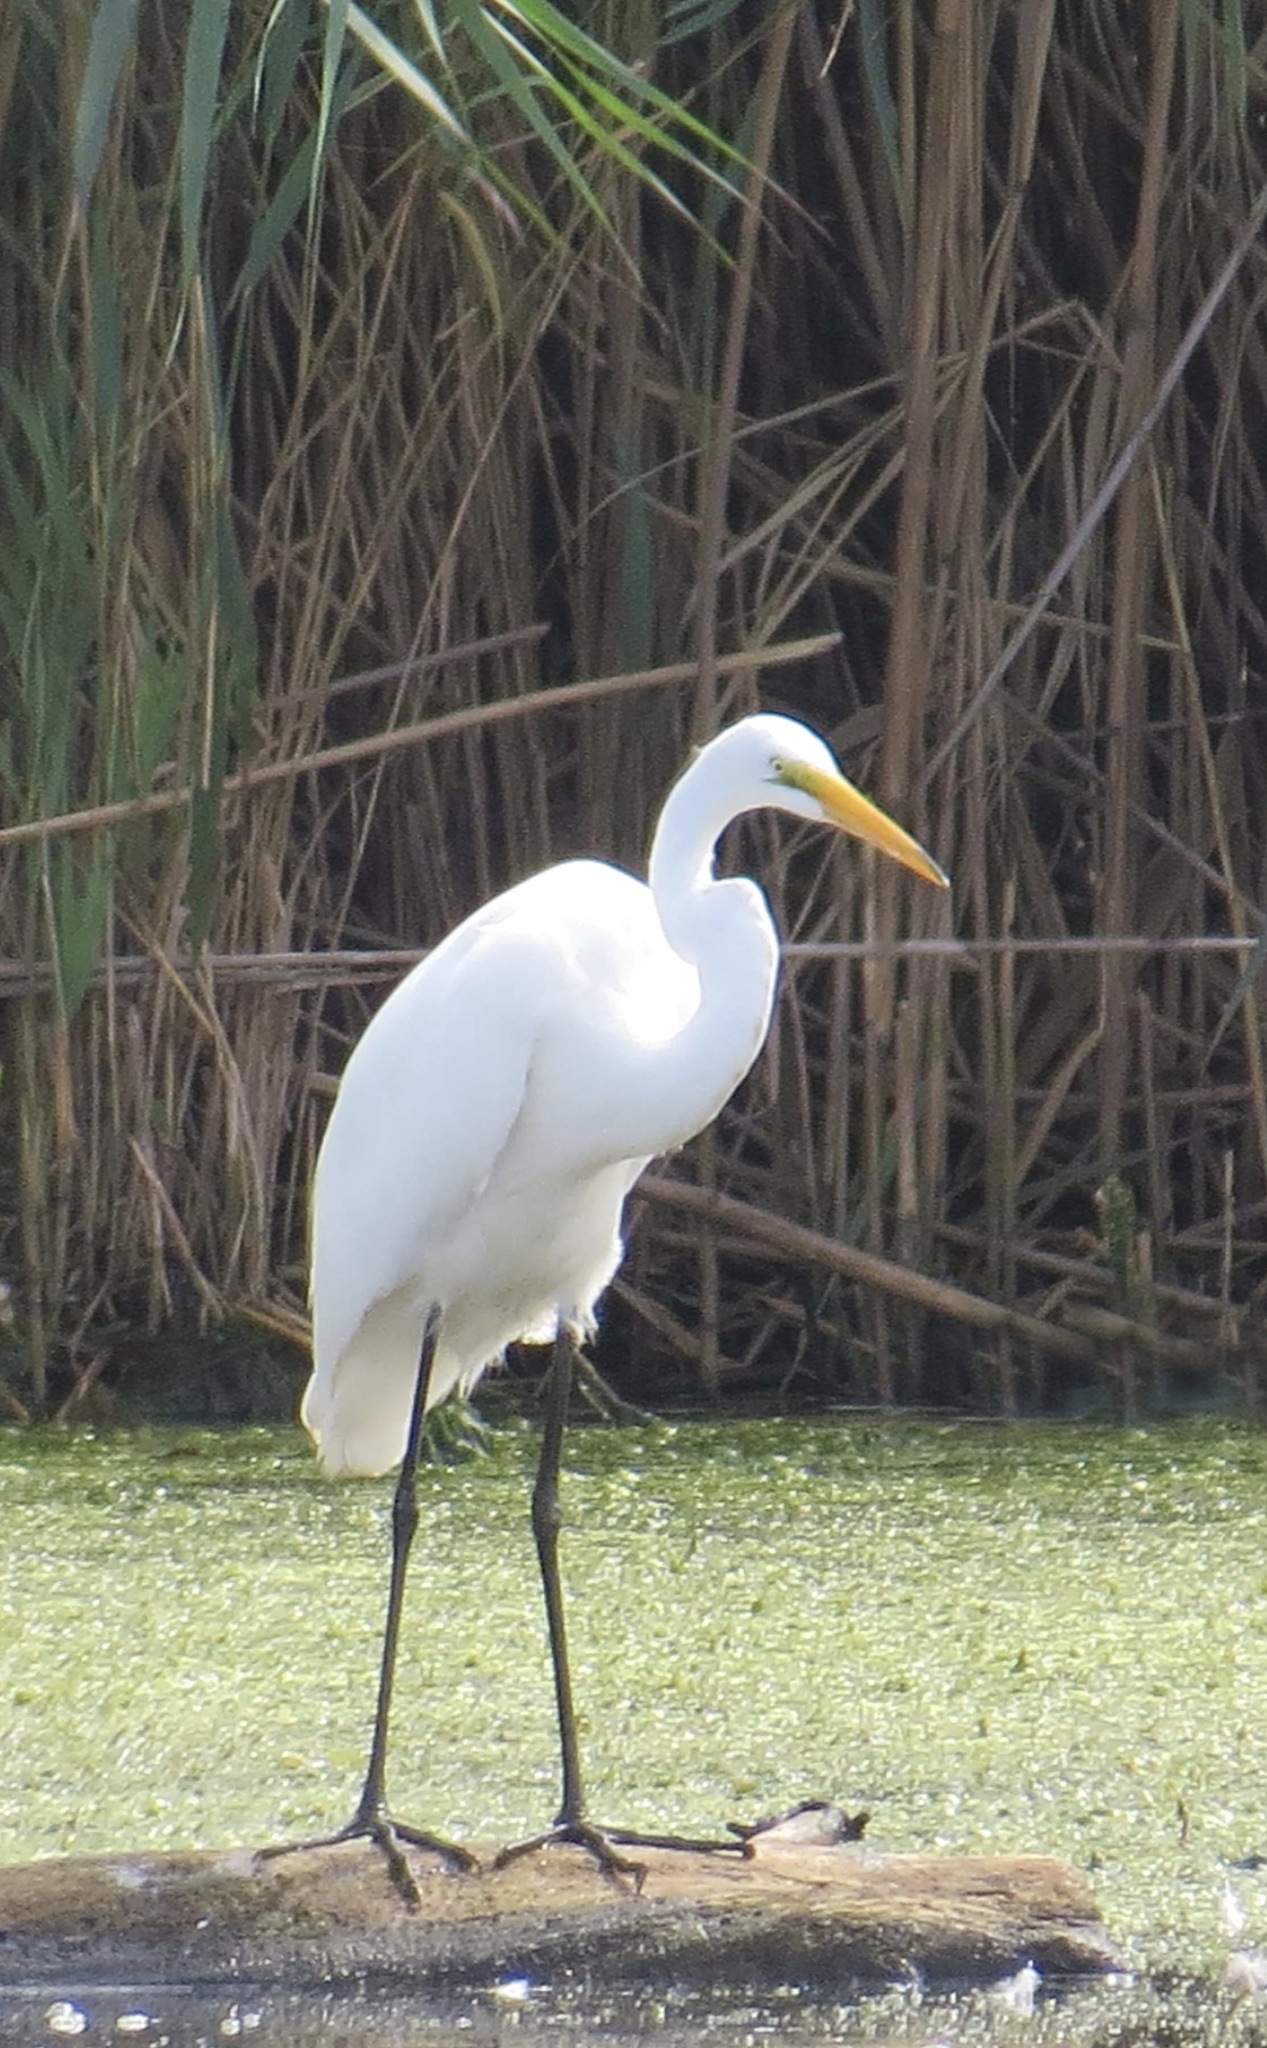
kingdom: Animalia
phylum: Chordata
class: Aves
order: Pelecaniformes
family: Ardeidae
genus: Ardea
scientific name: Ardea alba
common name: Great egret
